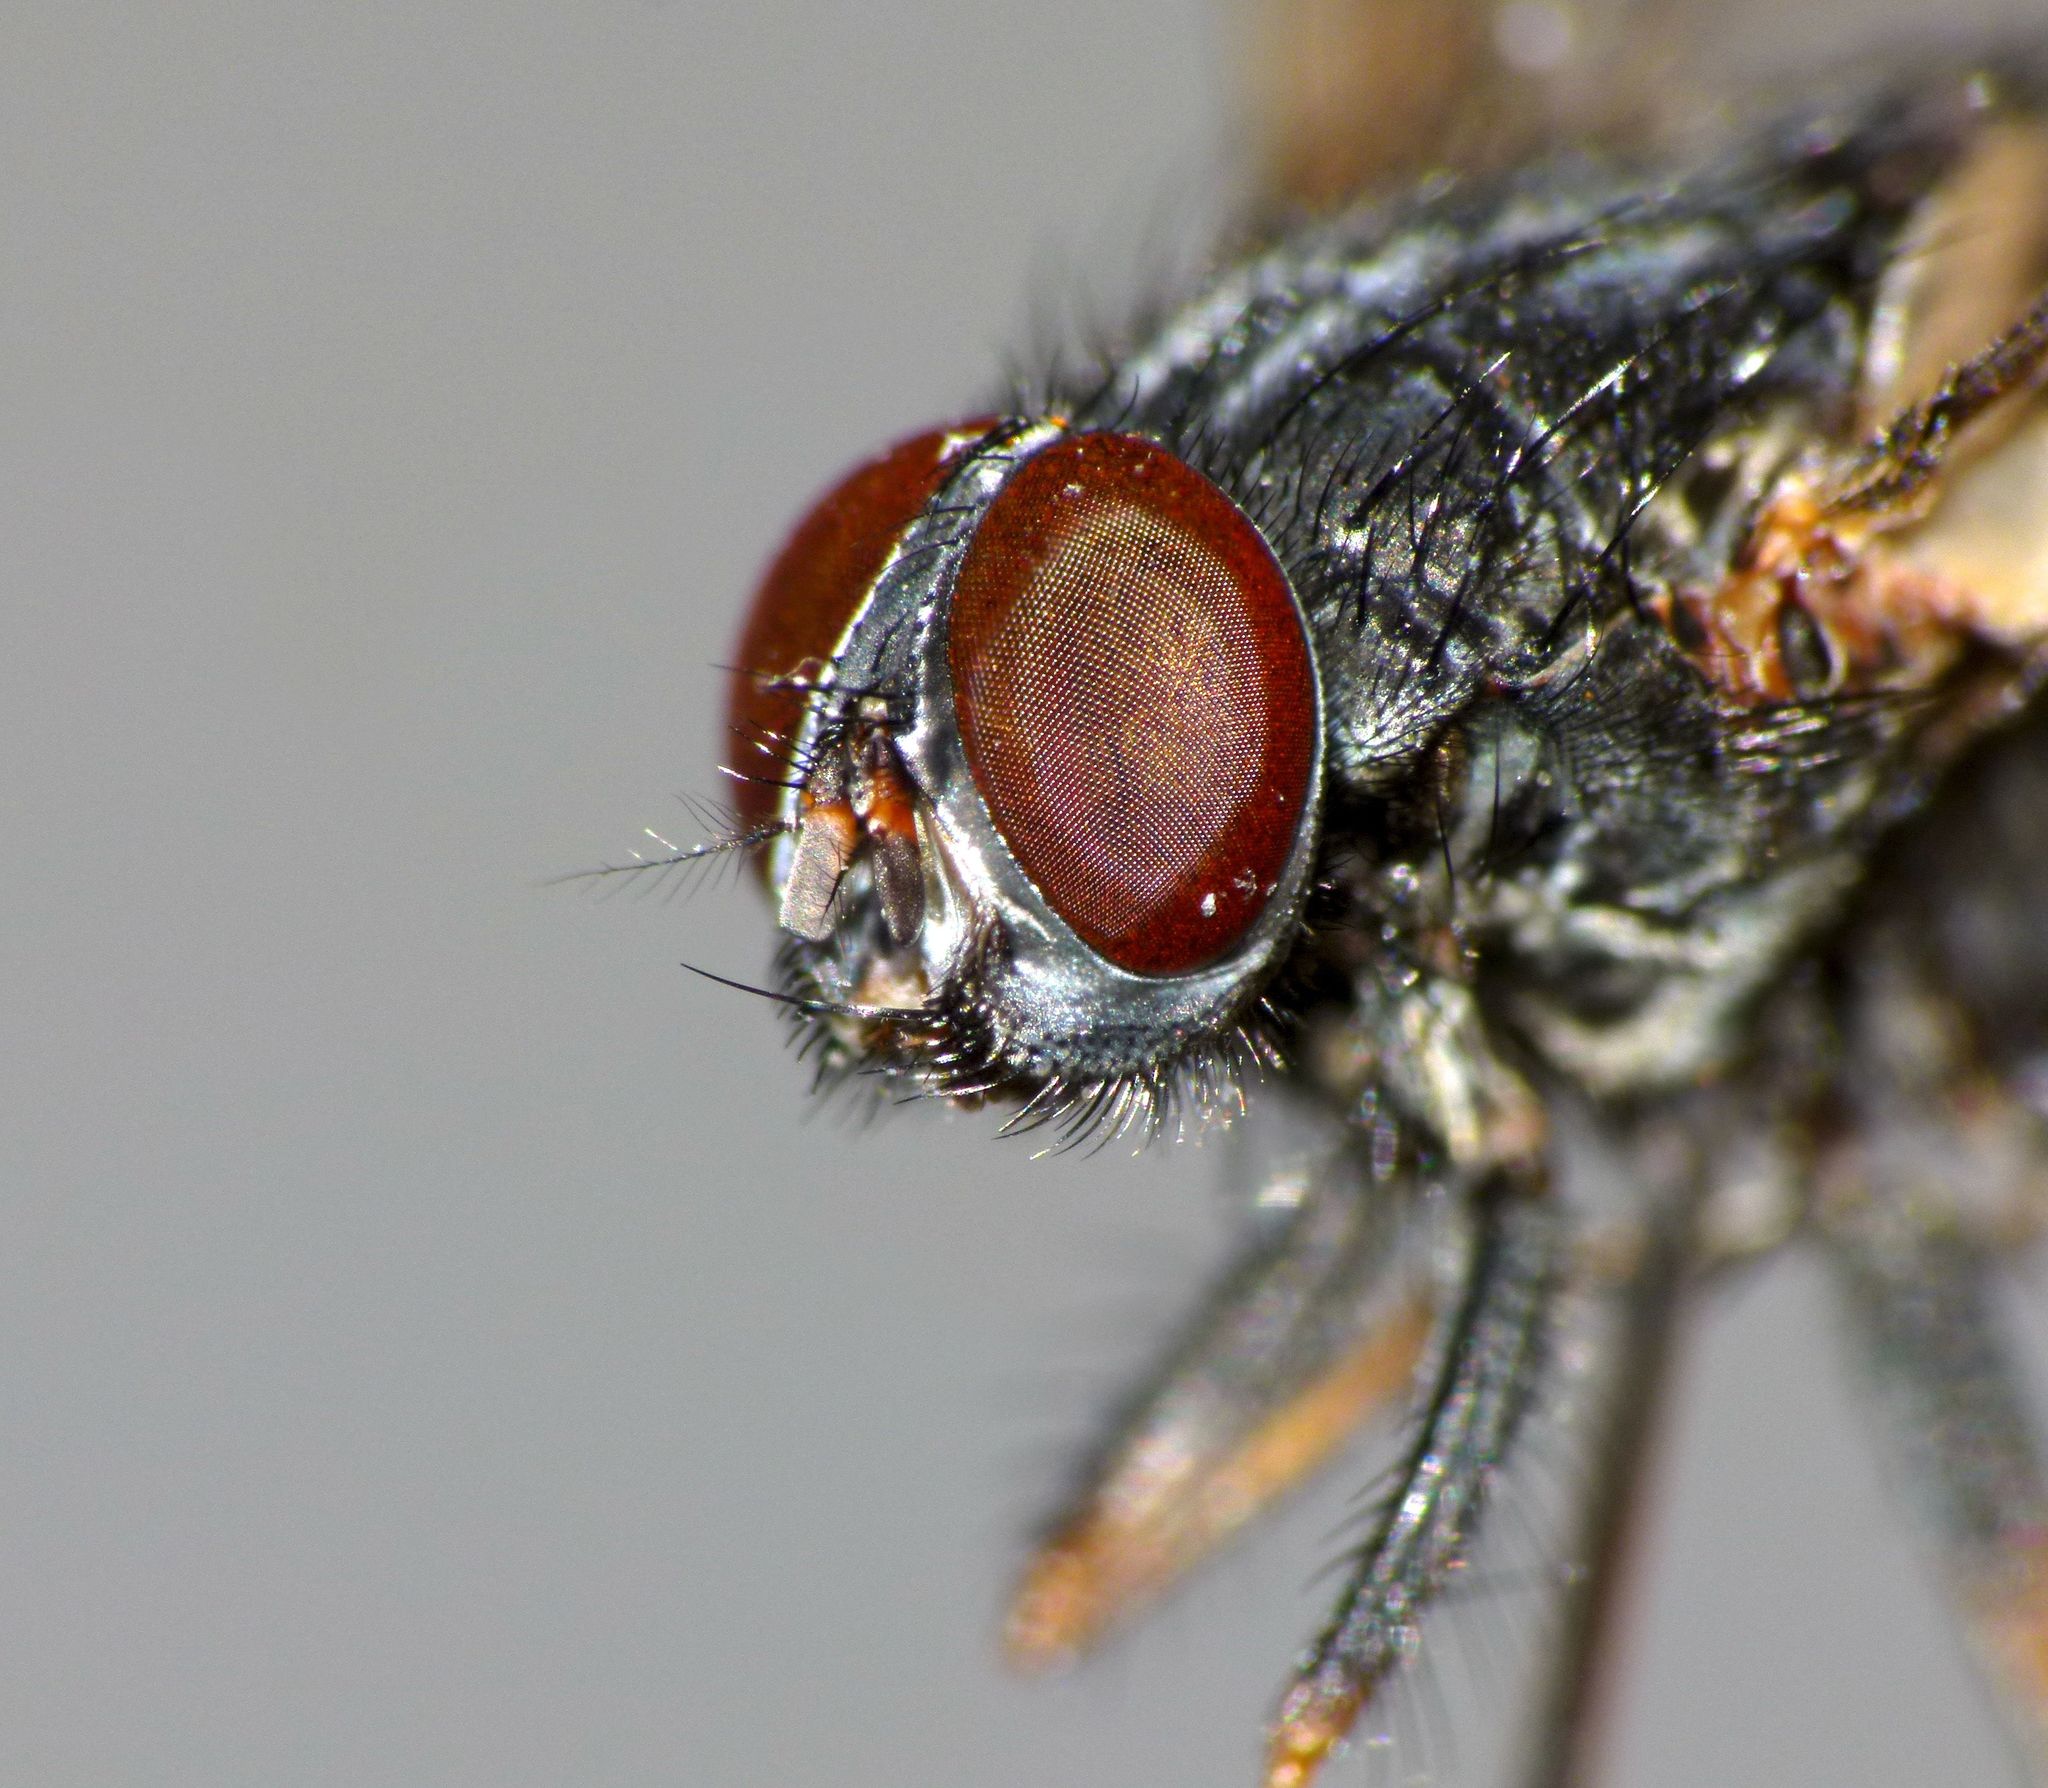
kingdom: Animalia
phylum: Arthropoda
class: Insecta
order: Diptera
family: Muscidae
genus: Muscina
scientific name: Muscina stabulans
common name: False stable fly
